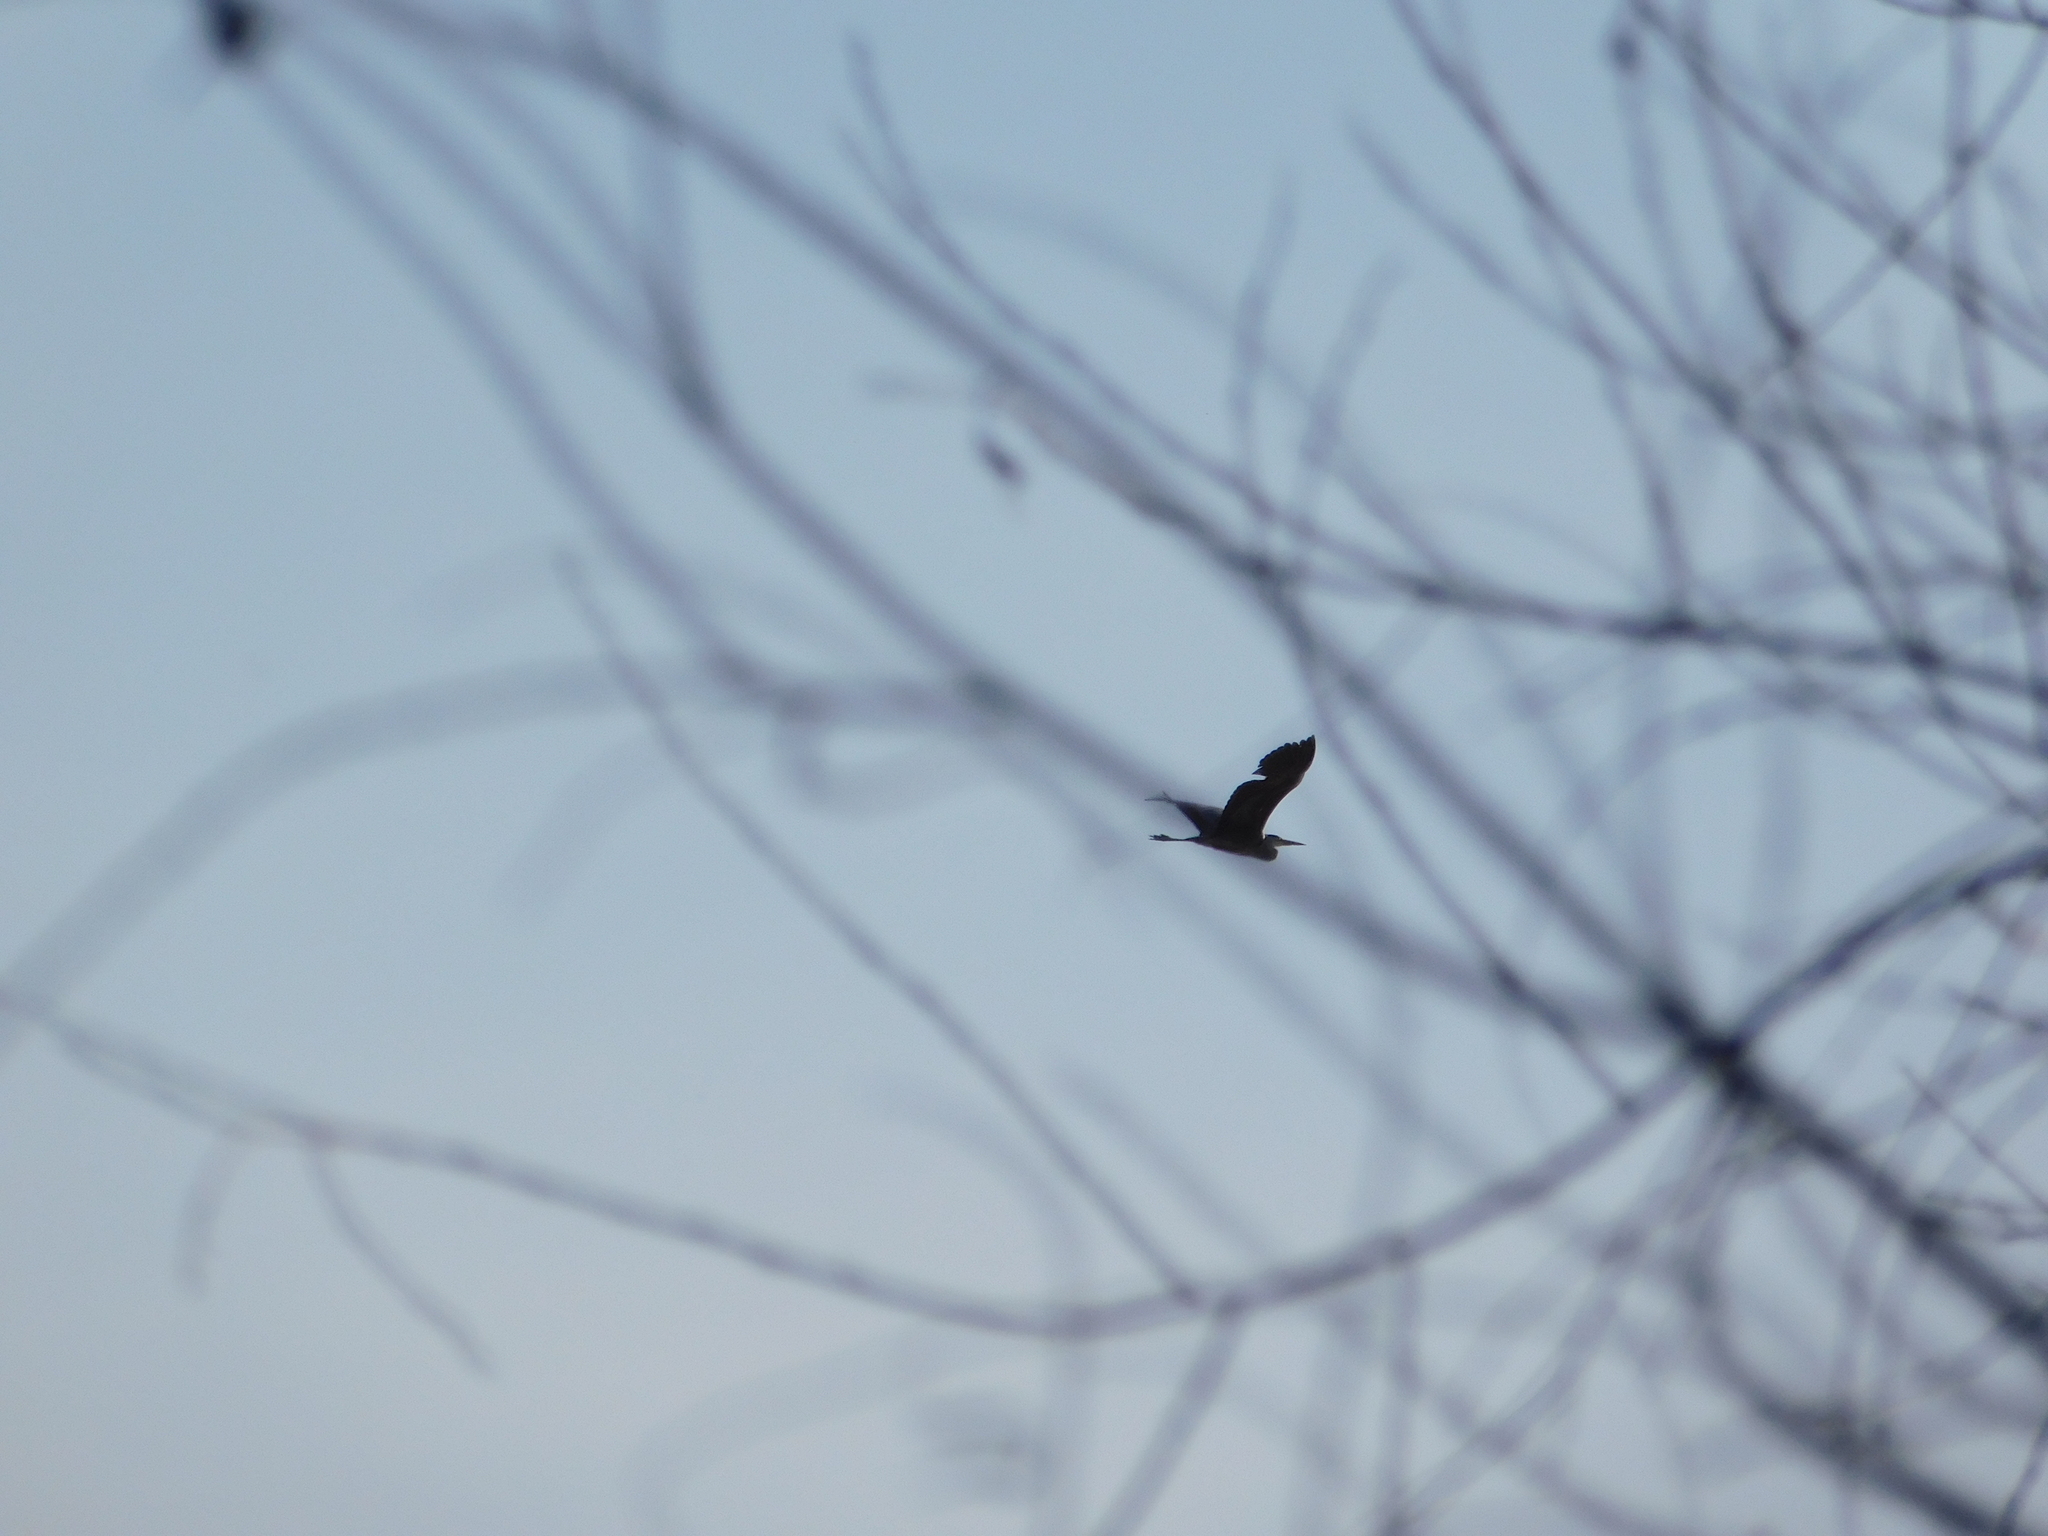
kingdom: Animalia
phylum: Chordata
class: Aves
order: Pelecaniformes
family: Ardeidae
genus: Ardea
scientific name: Ardea cinerea
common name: Grey heron
